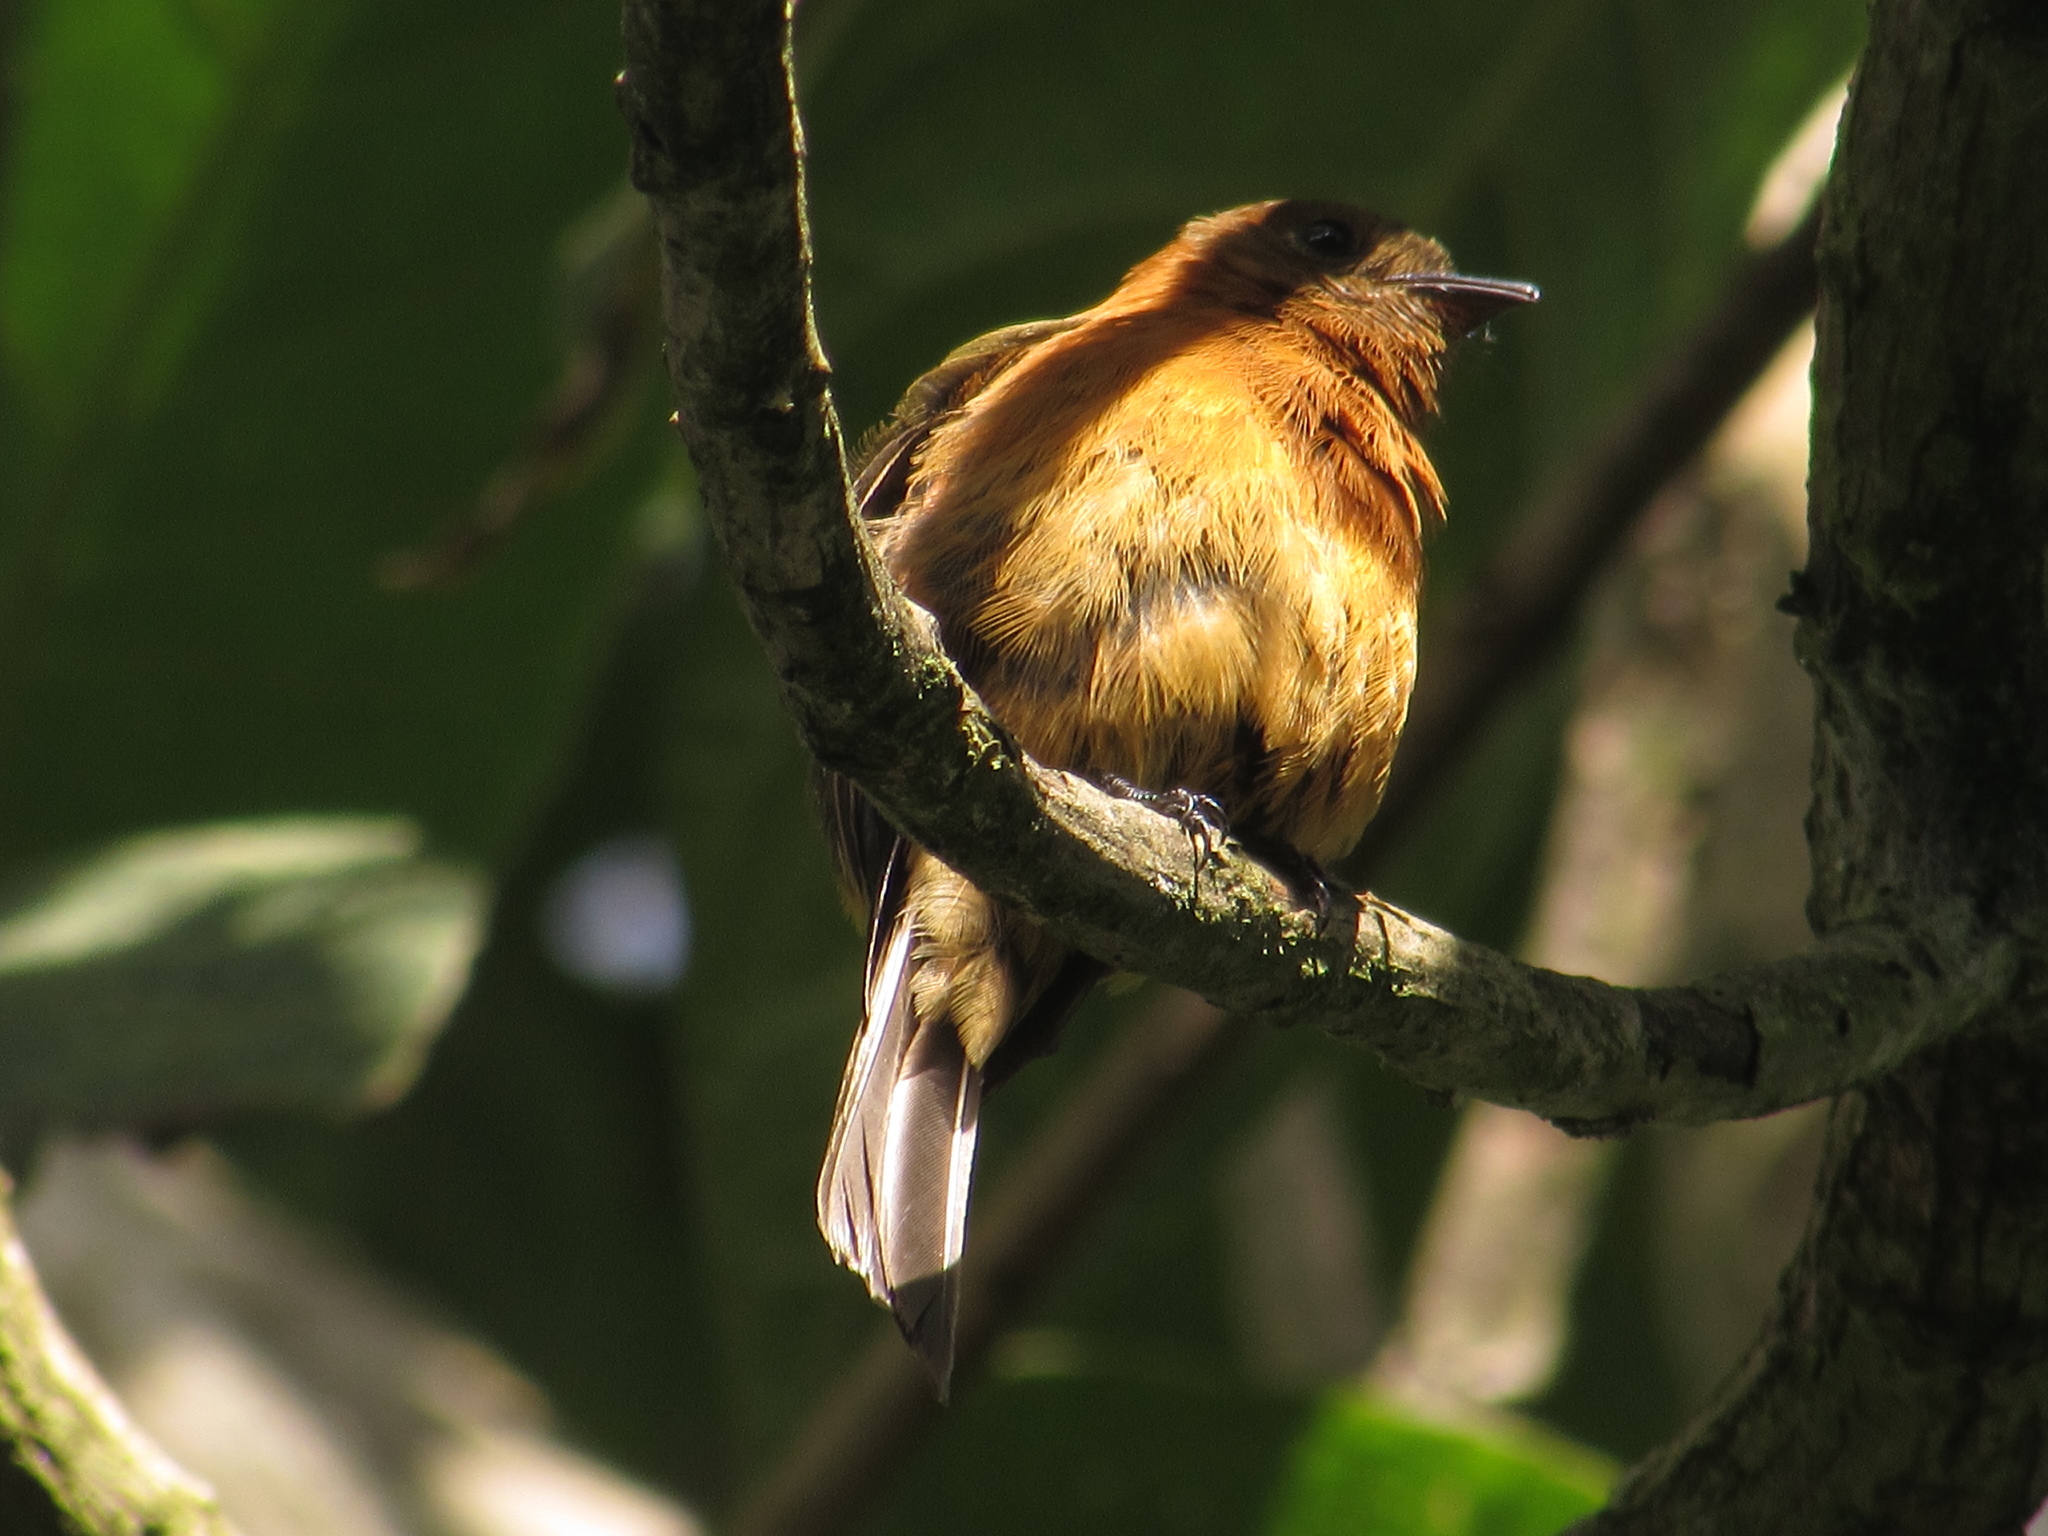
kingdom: Animalia
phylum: Chordata
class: Aves
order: Passeriformes
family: Tyrannidae
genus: Pyrrhomyias
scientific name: Pyrrhomyias cinnamomeus
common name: Cinnamon flycatcher
